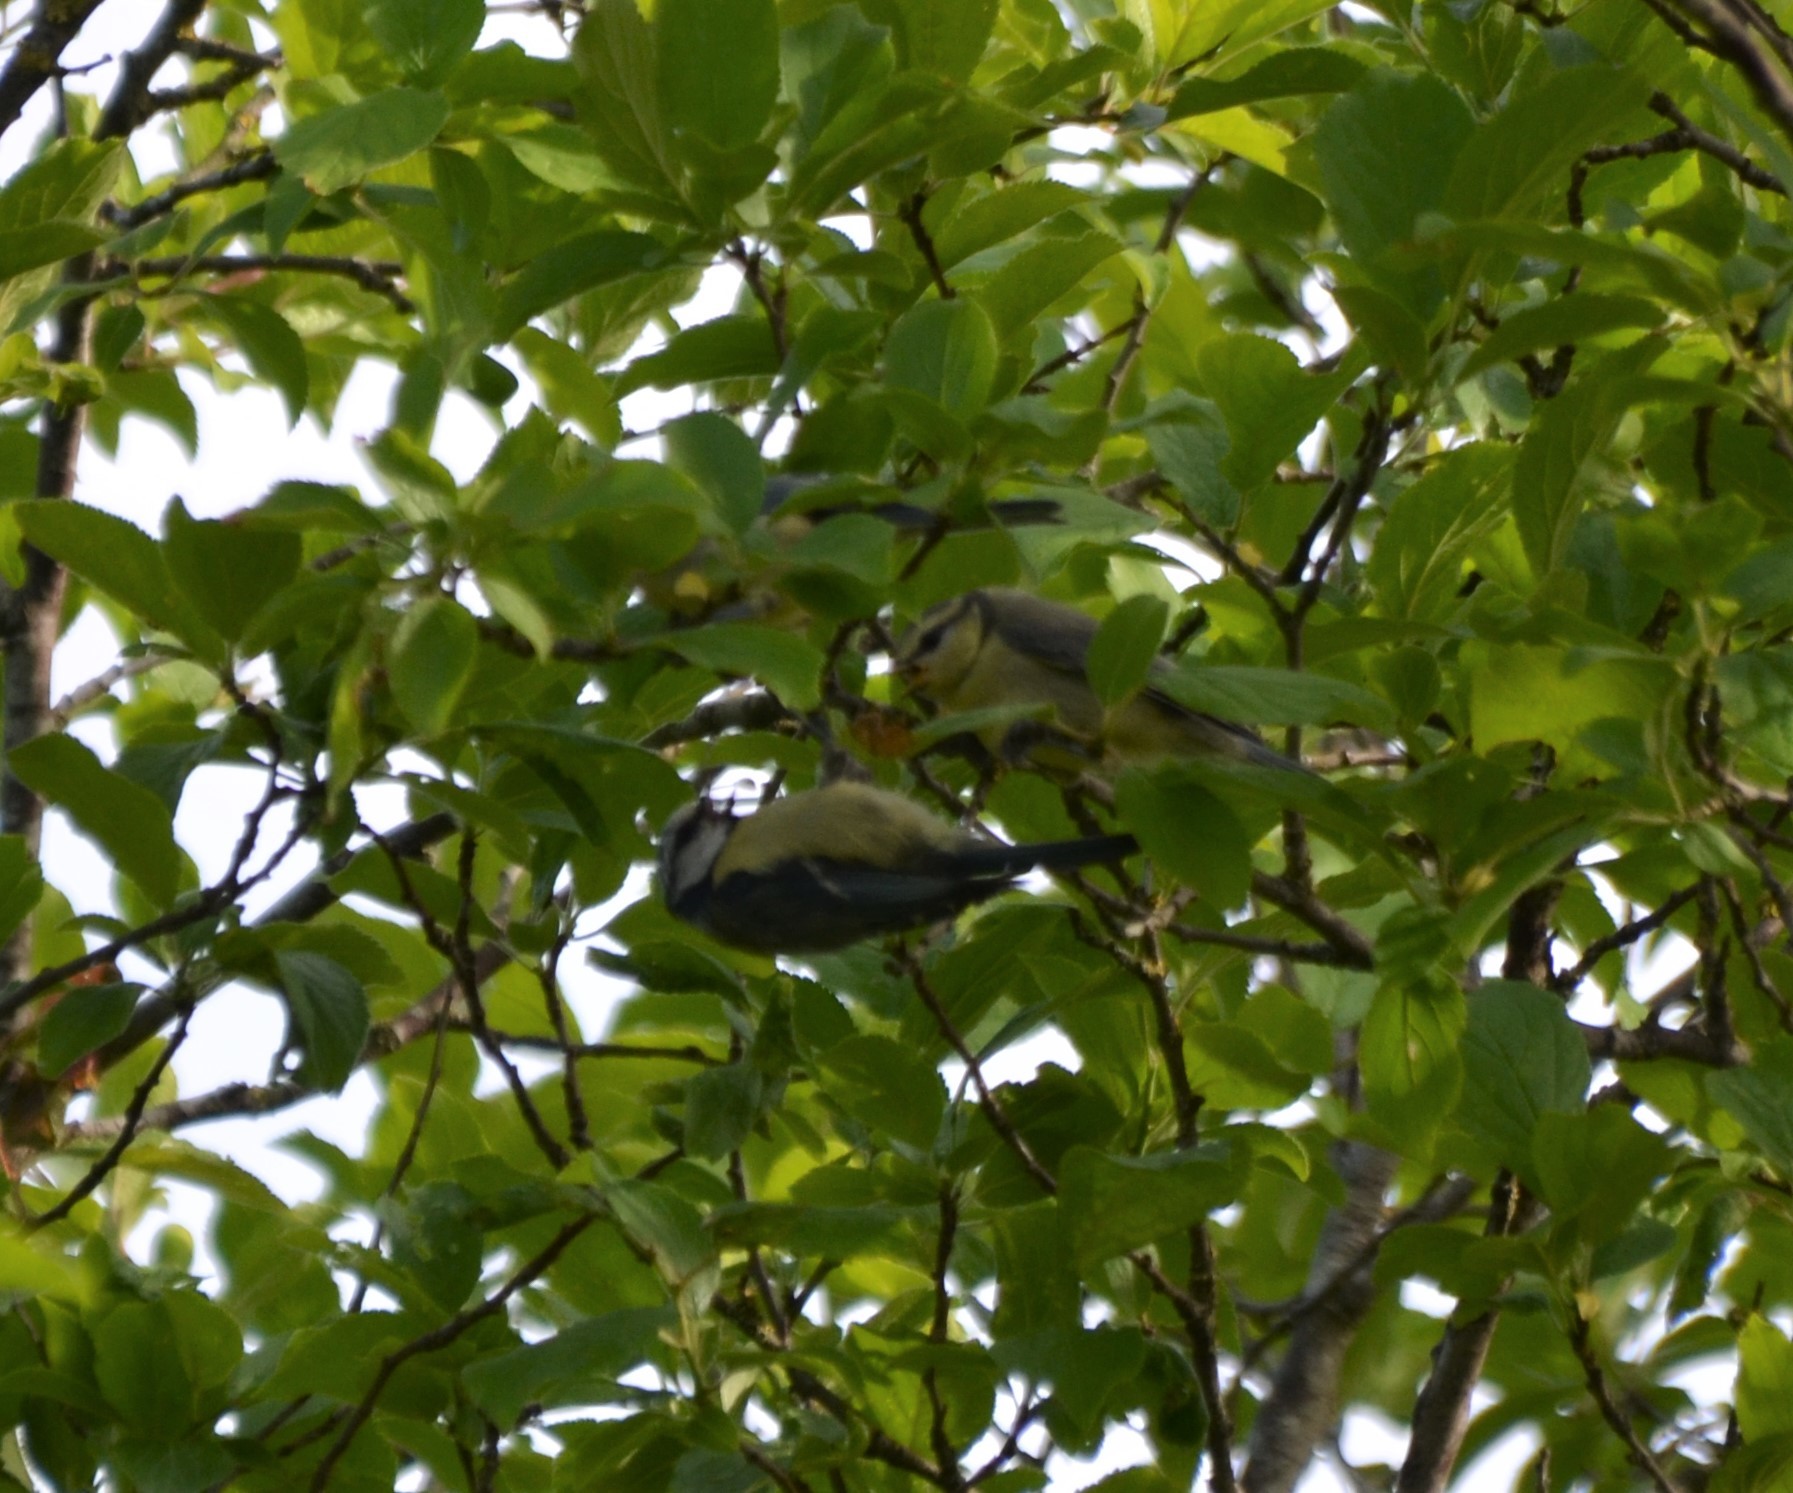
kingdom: Animalia
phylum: Chordata
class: Aves
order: Passeriformes
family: Paridae
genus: Cyanistes
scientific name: Cyanistes caeruleus
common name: Eurasian blue tit
